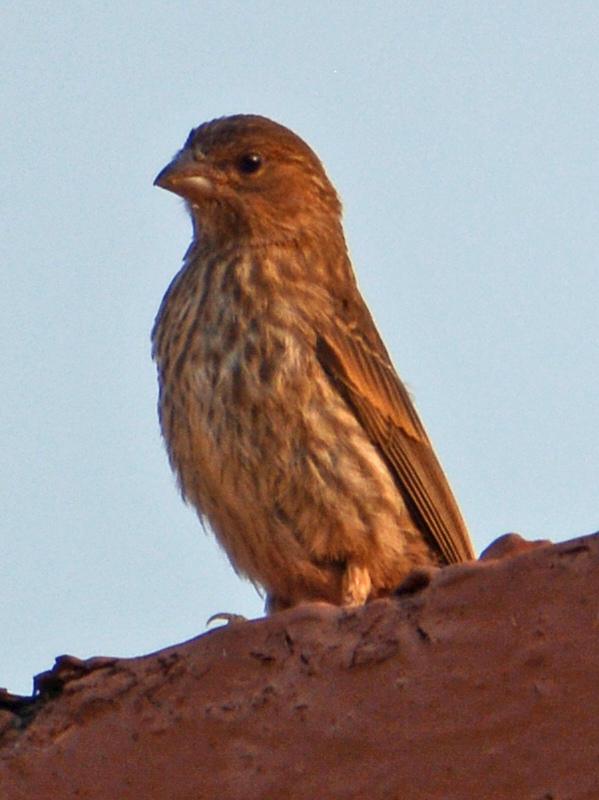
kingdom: Animalia
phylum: Chordata
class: Aves
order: Passeriformes
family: Fringillidae
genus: Haemorhous
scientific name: Haemorhous mexicanus
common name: House finch
